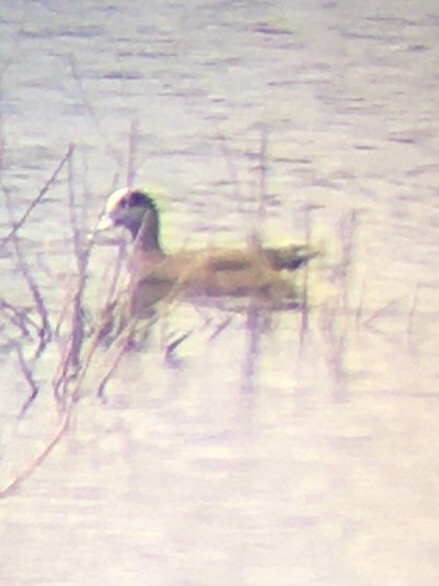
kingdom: Animalia
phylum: Chordata
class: Aves
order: Anseriformes
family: Anatidae
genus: Mareca
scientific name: Mareca americana
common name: American wigeon
